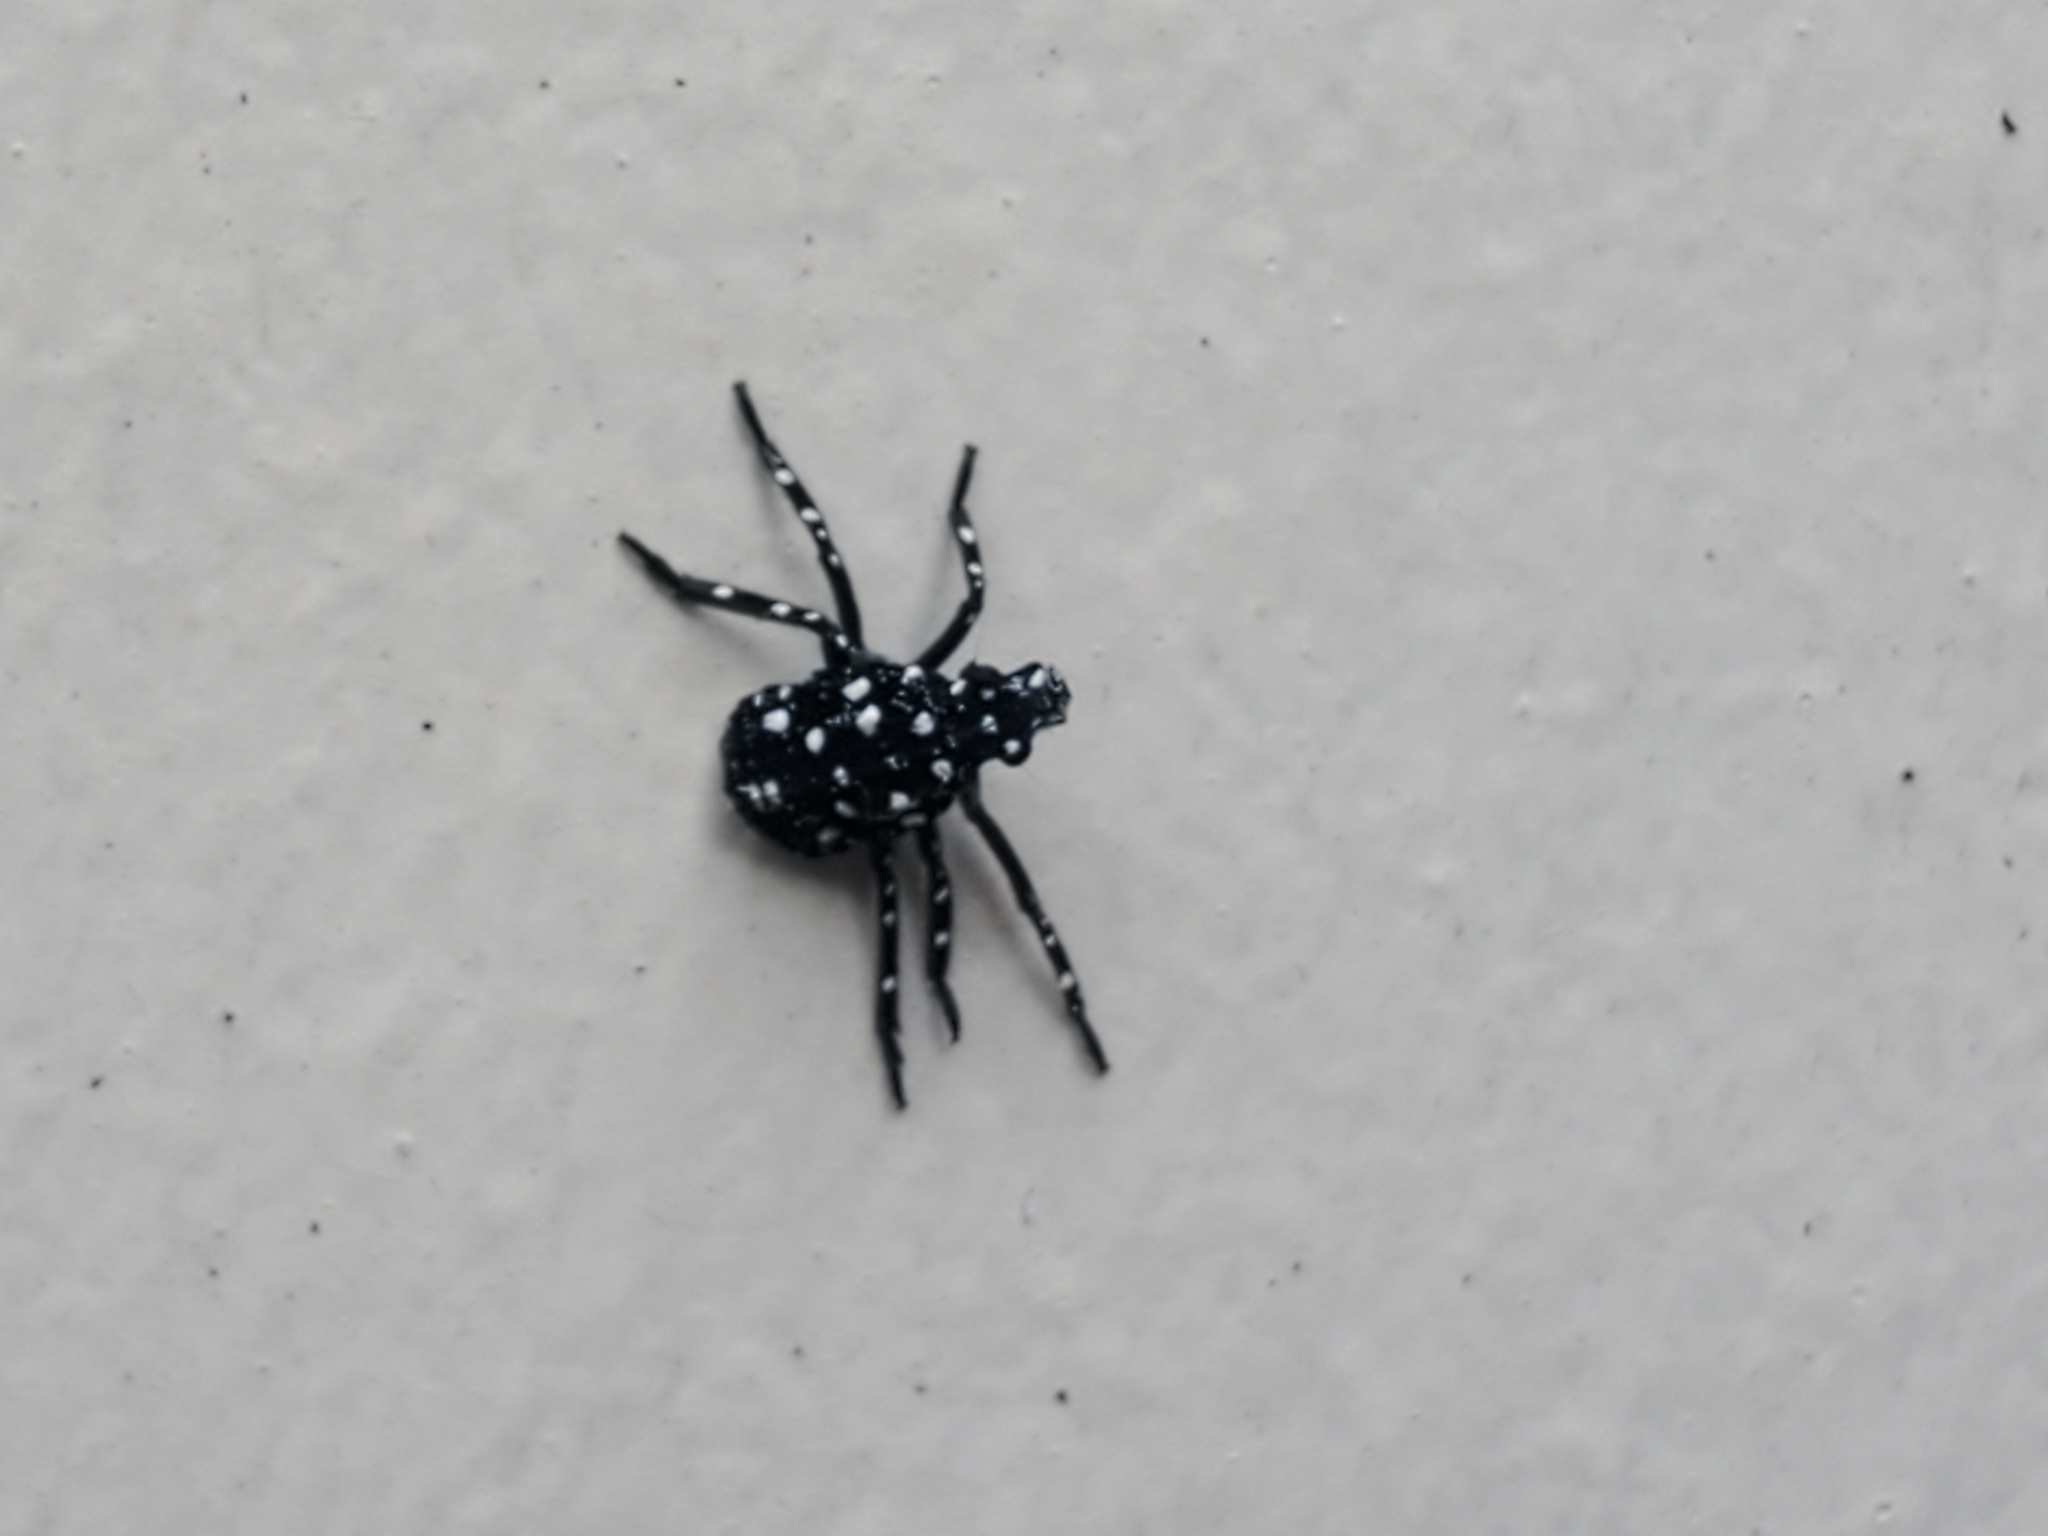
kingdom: Animalia
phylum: Arthropoda
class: Insecta
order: Hemiptera
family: Fulgoridae
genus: Lycorma
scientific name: Lycorma delicatula
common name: Spotted lanternfly
